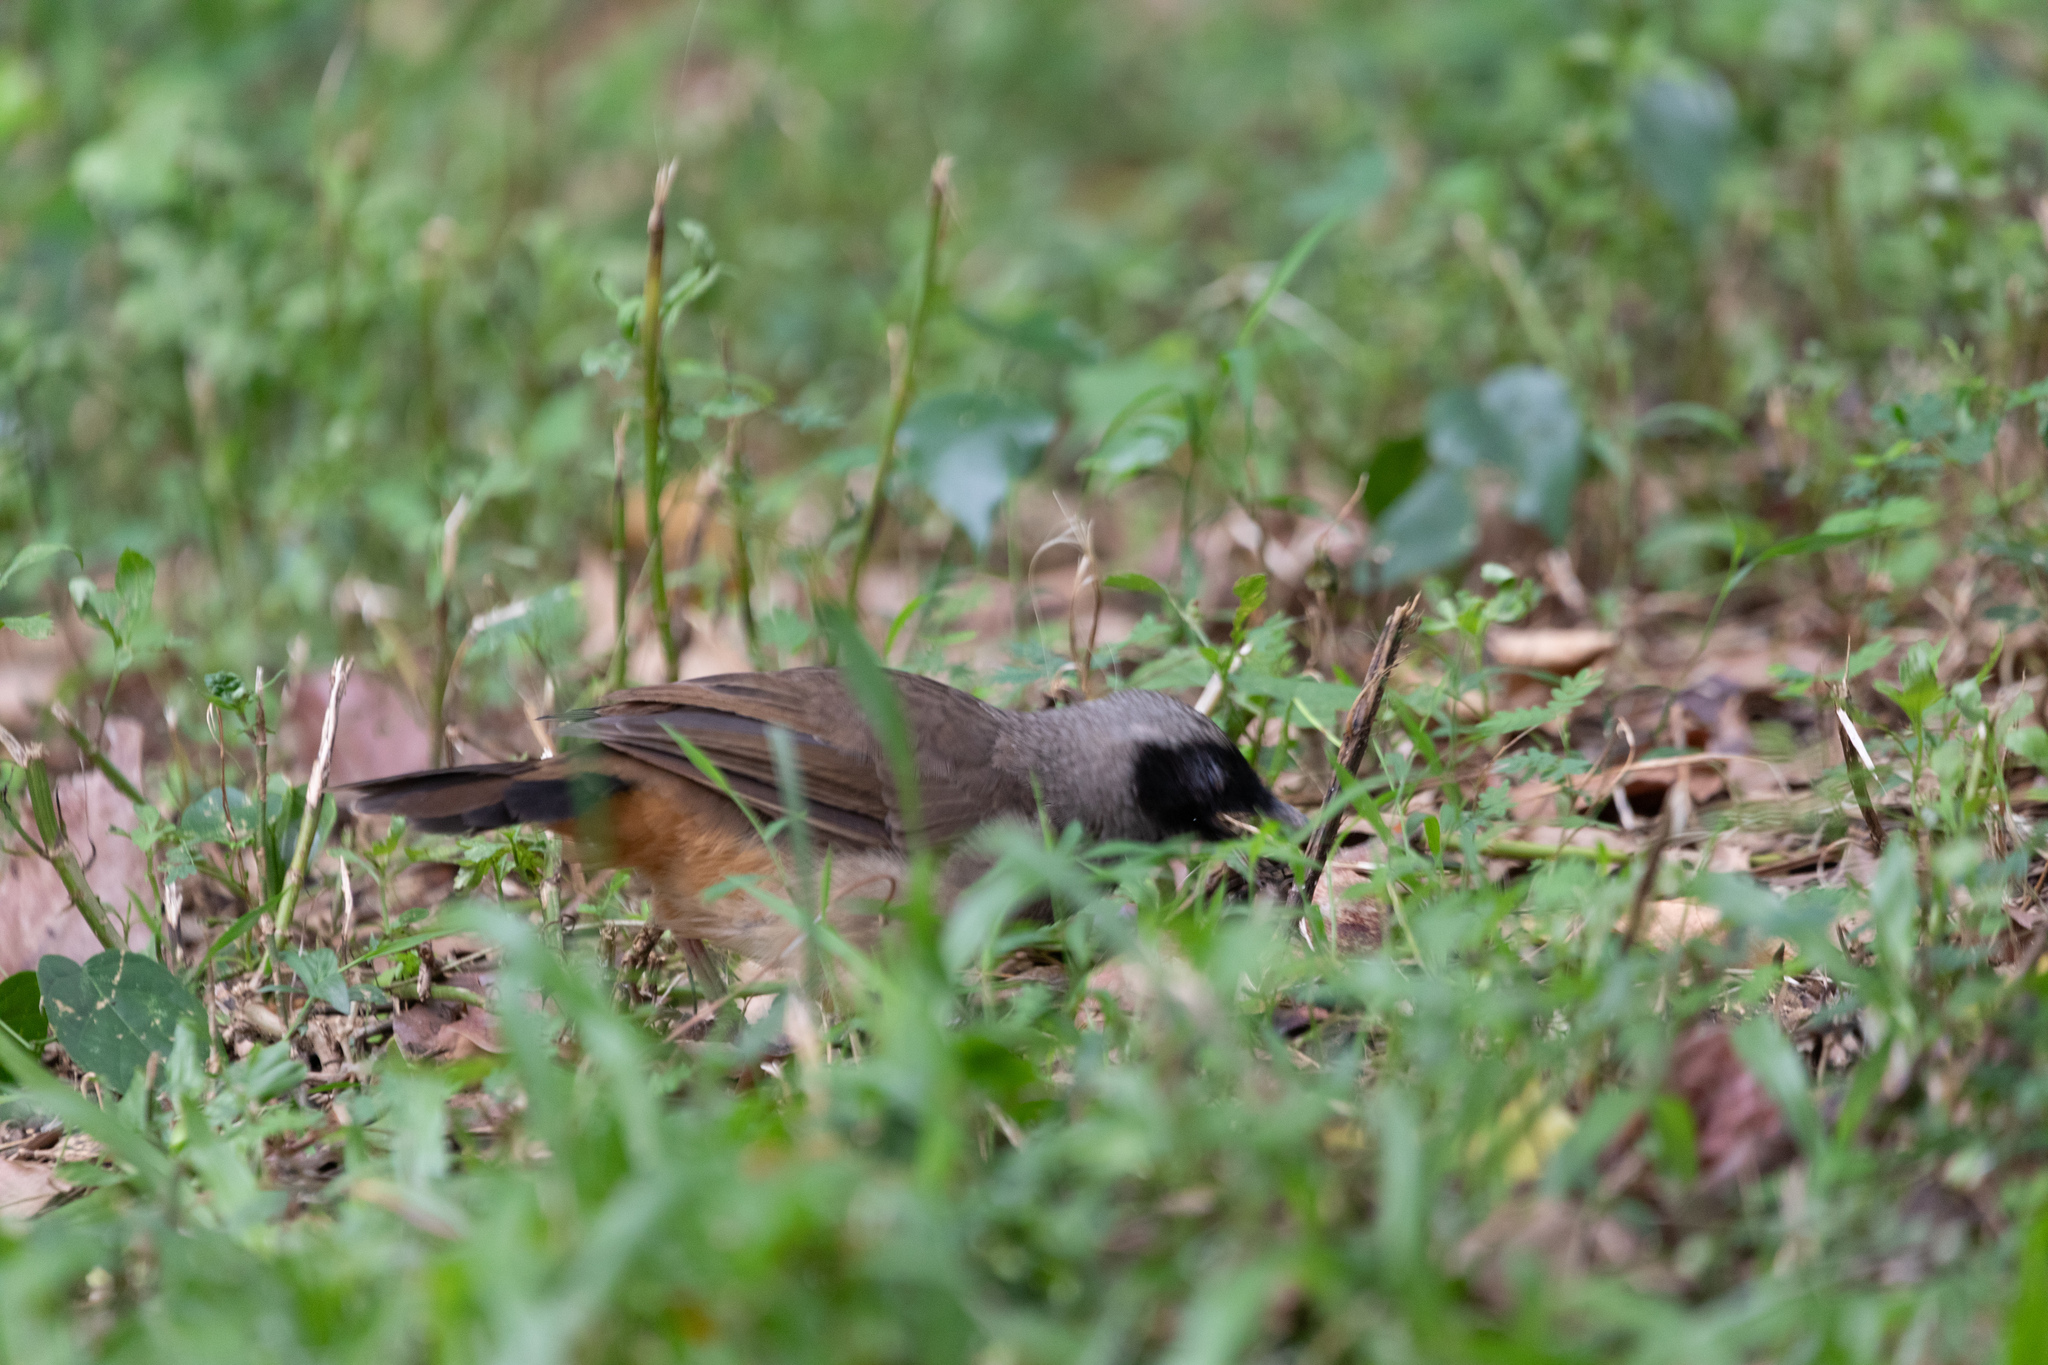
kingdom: Animalia
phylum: Chordata
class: Aves
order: Passeriformes
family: Leiothrichidae
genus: Garrulax
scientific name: Garrulax perspicillatus
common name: Masked laughingthrush
